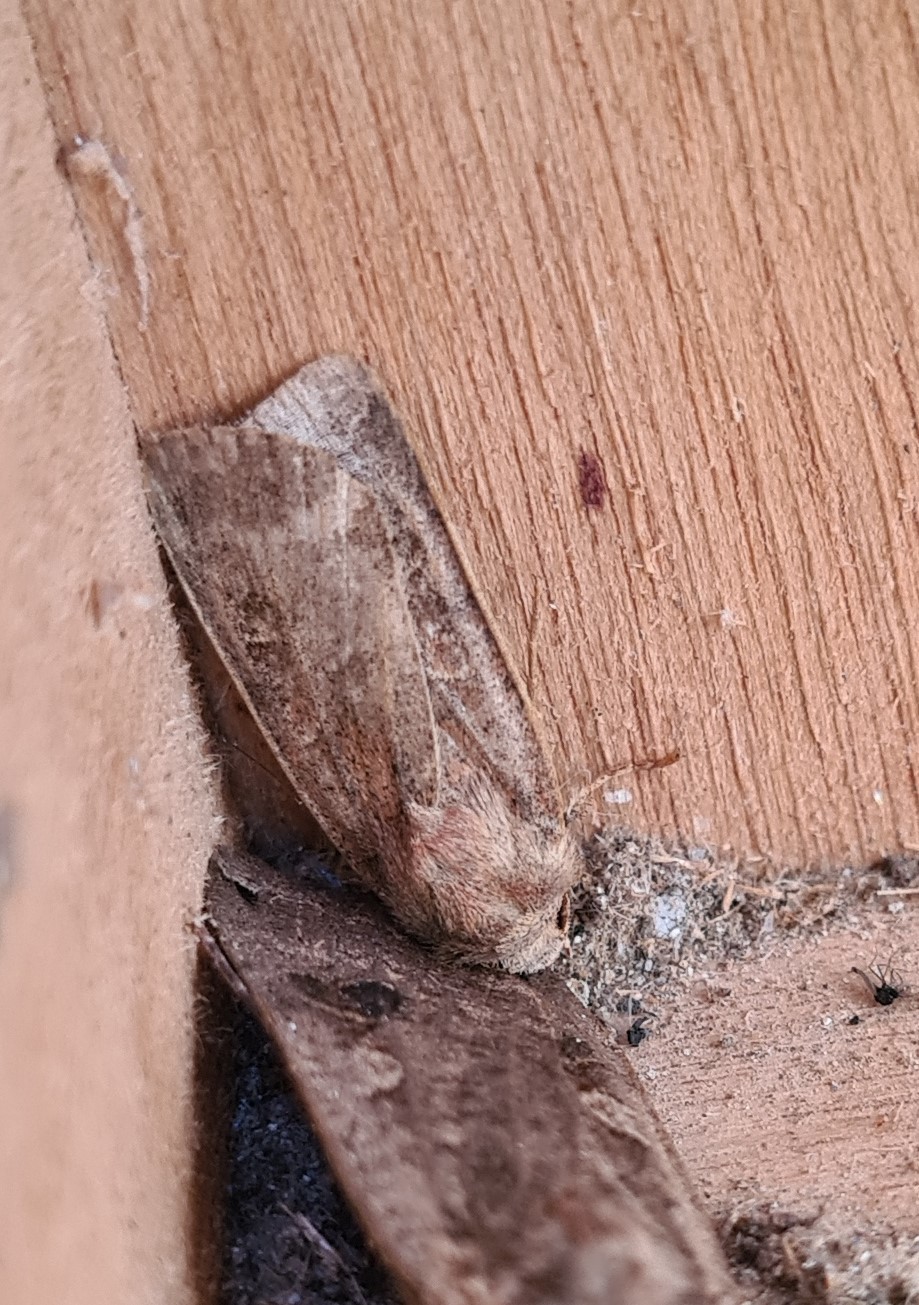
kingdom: Animalia
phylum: Arthropoda
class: Insecta
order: Lepidoptera
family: Noctuidae
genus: Xestia
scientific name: Xestia xanthographa
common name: Square-spot rustic
